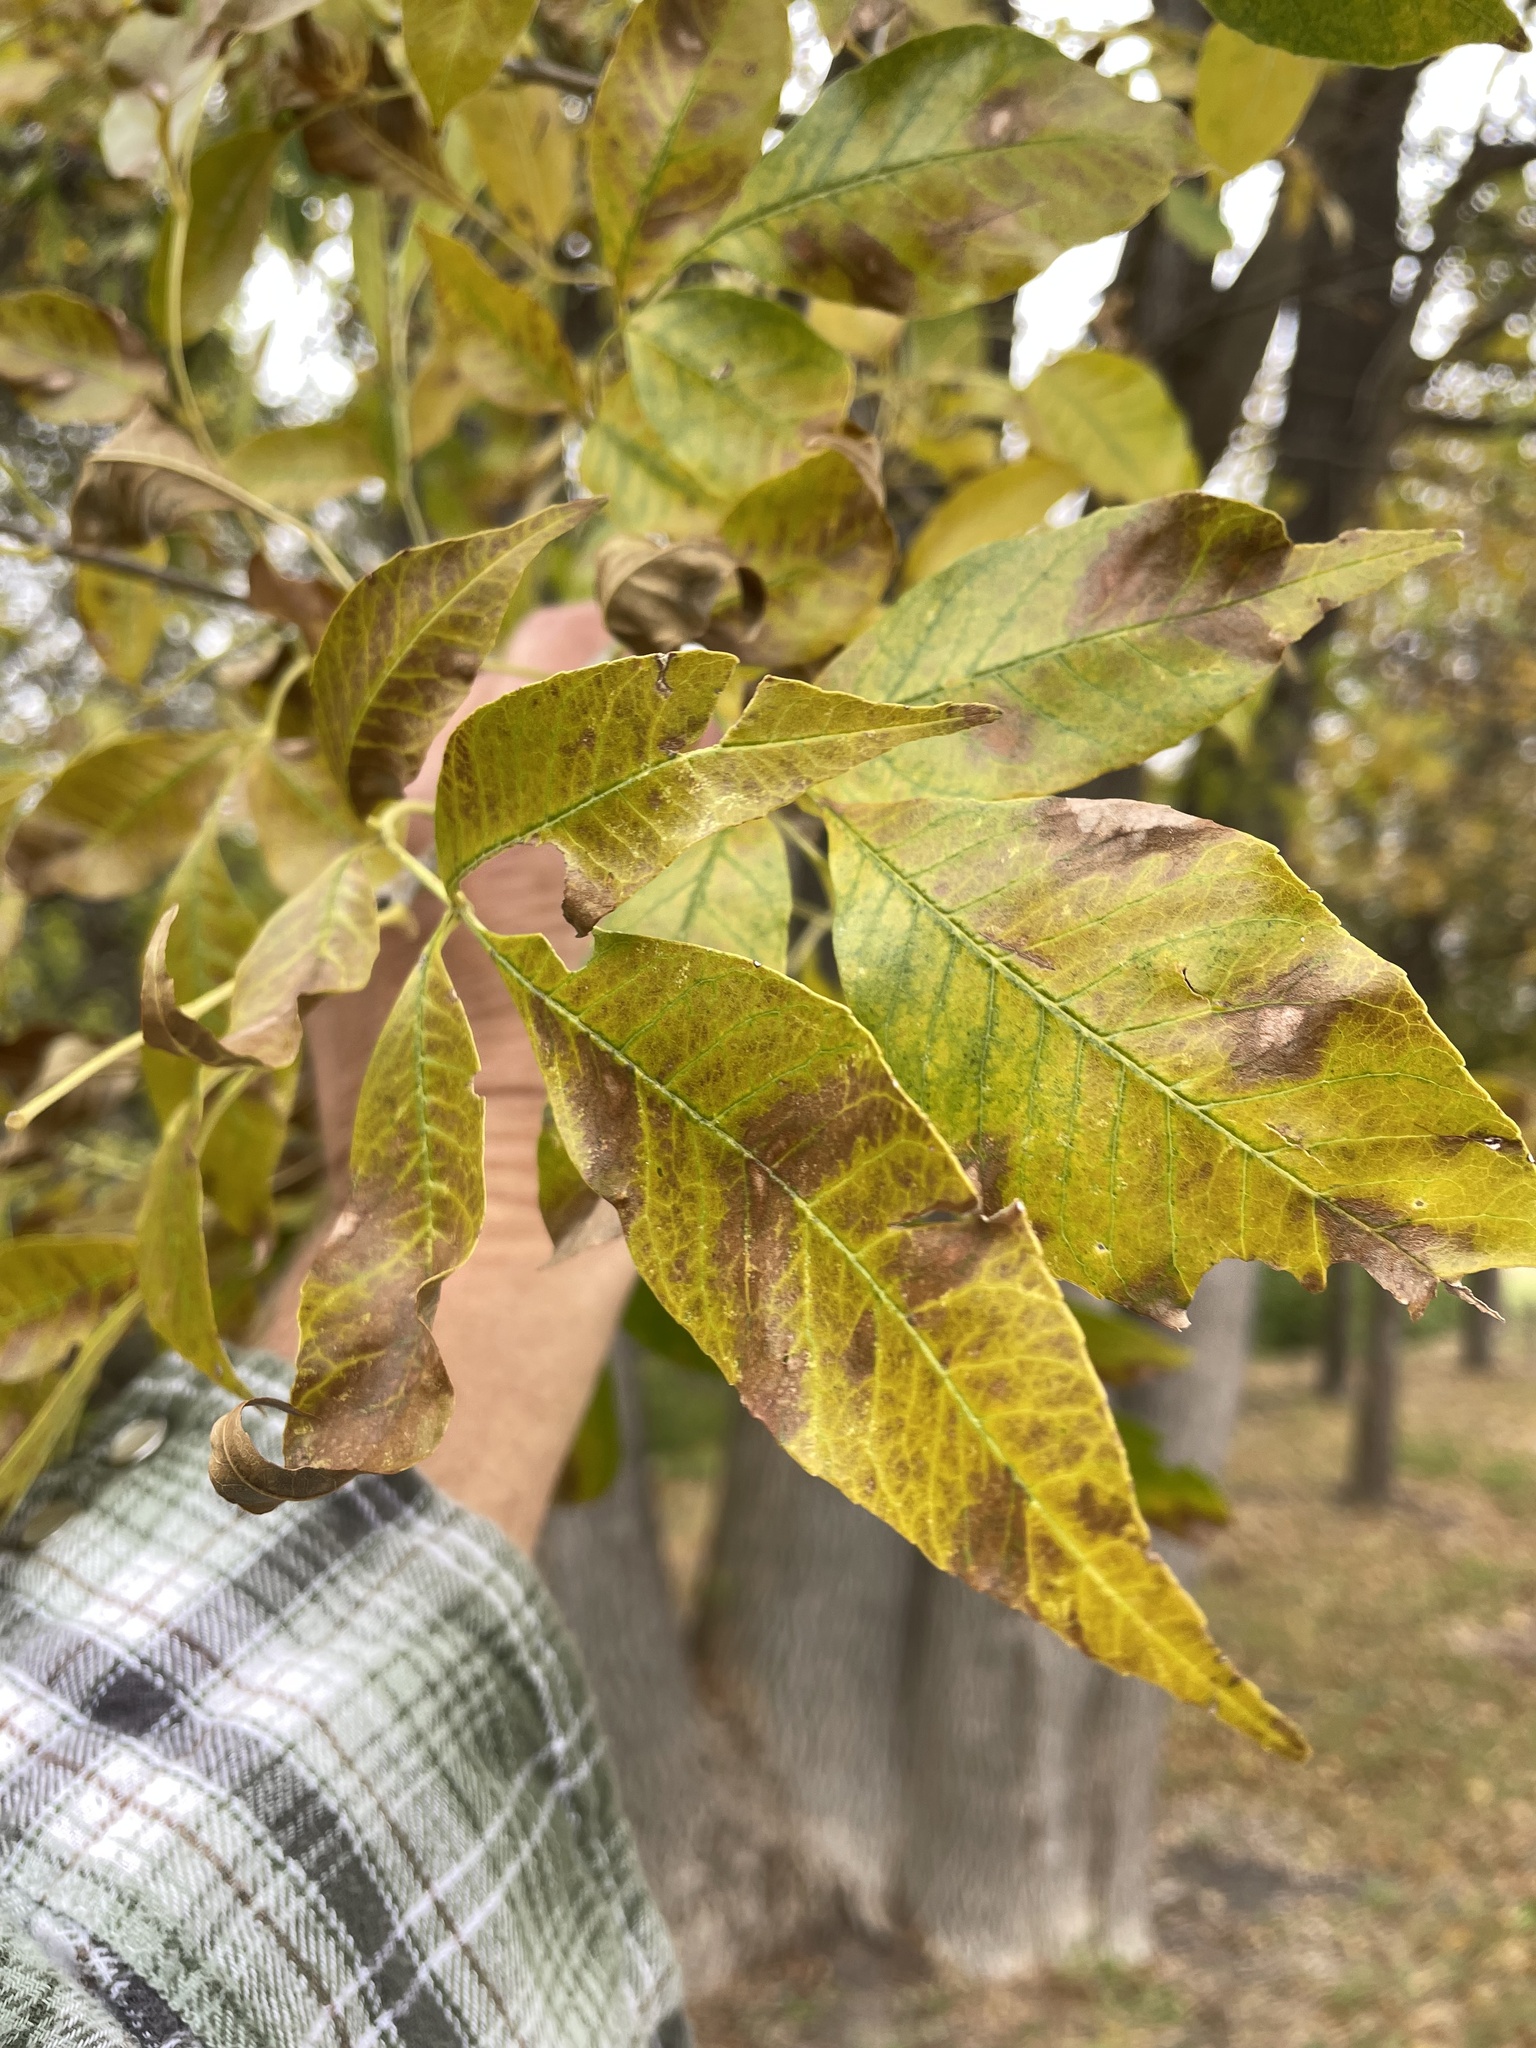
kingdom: Plantae
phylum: Tracheophyta
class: Magnoliopsida
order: Lamiales
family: Oleaceae
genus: Fraxinus
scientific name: Fraxinus pennsylvanica
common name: Green ash
